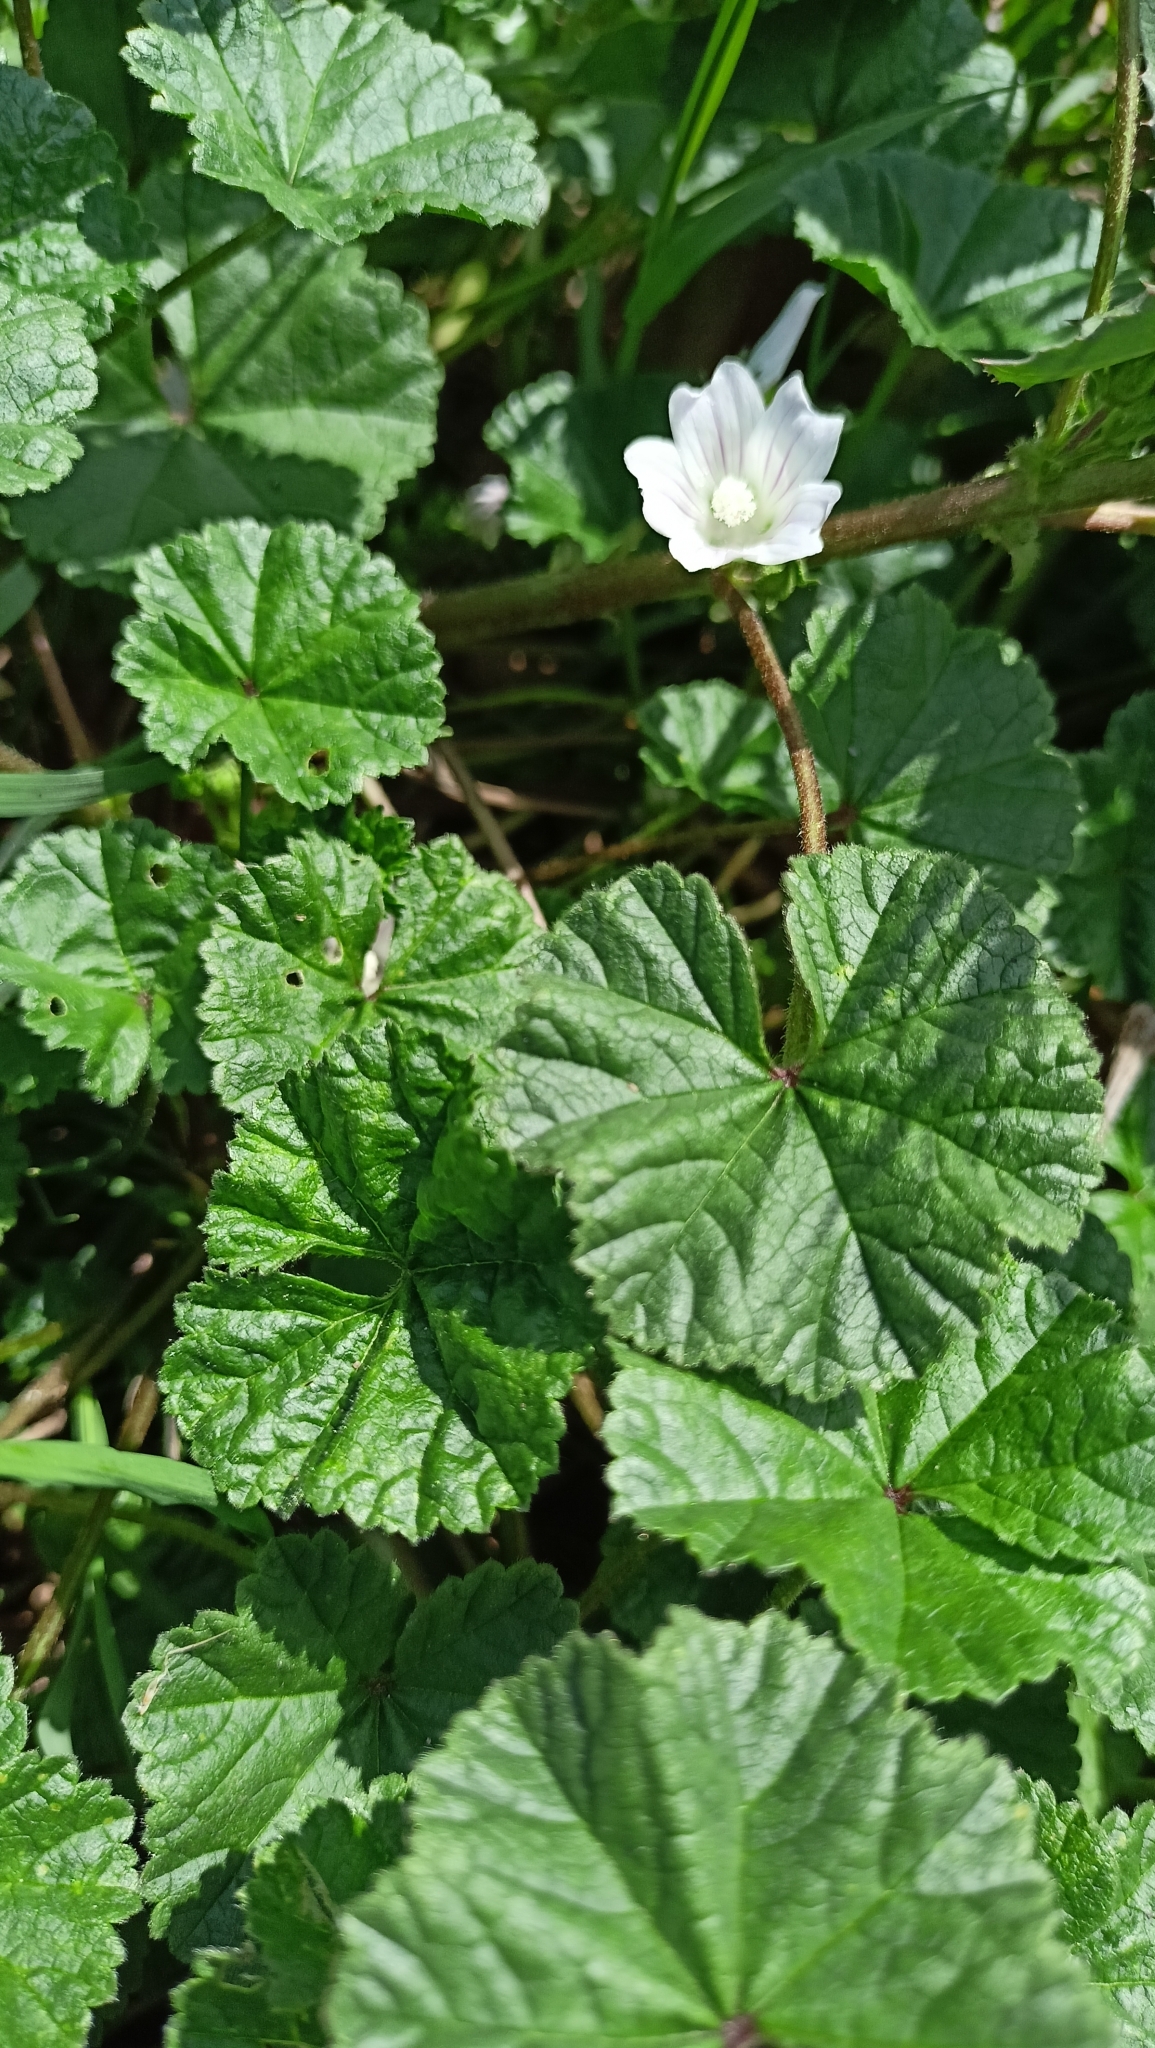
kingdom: Plantae
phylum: Tracheophyta
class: Magnoliopsida
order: Malvales
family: Malvaceae
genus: Malva
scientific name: Malva neglecta
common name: Common mallow
